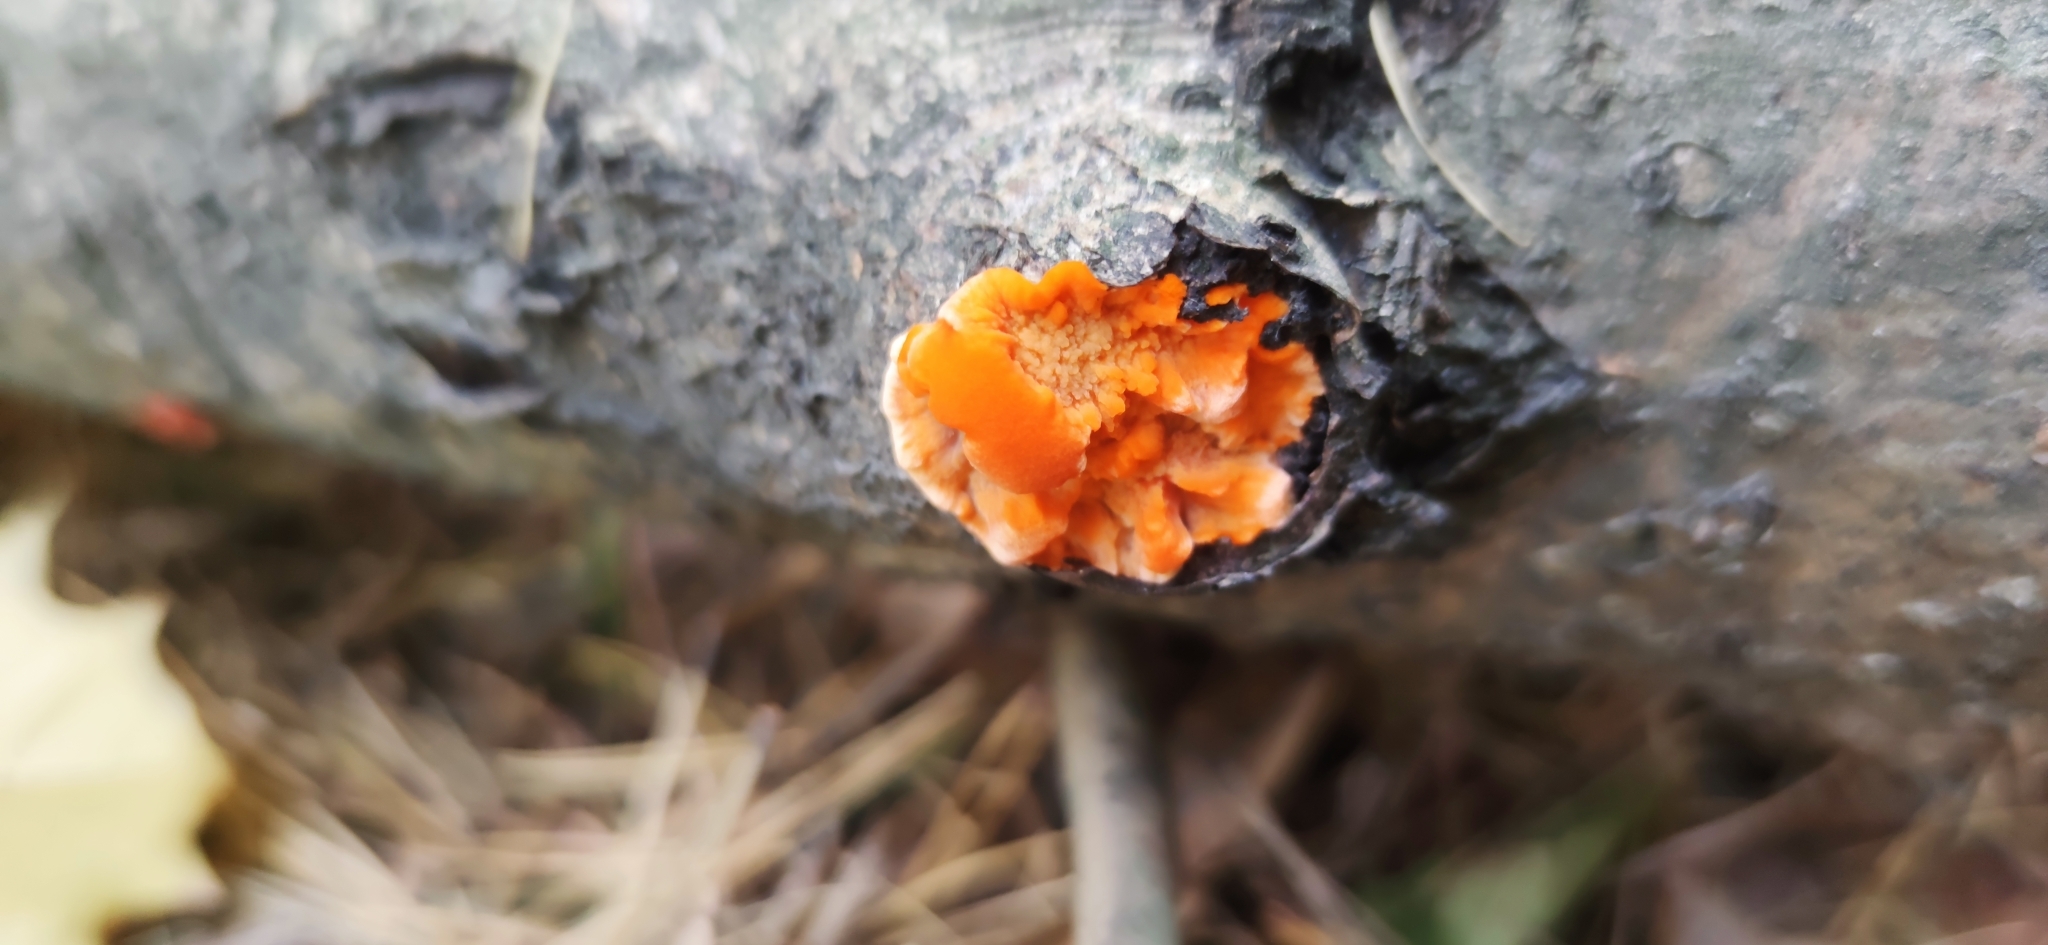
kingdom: Fungi
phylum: Basidiomycota
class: Agaricomycetes
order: Polyporales
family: Meruliaceae
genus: Phlebia
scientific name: Phlebia radiata
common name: Wrinkled crust
